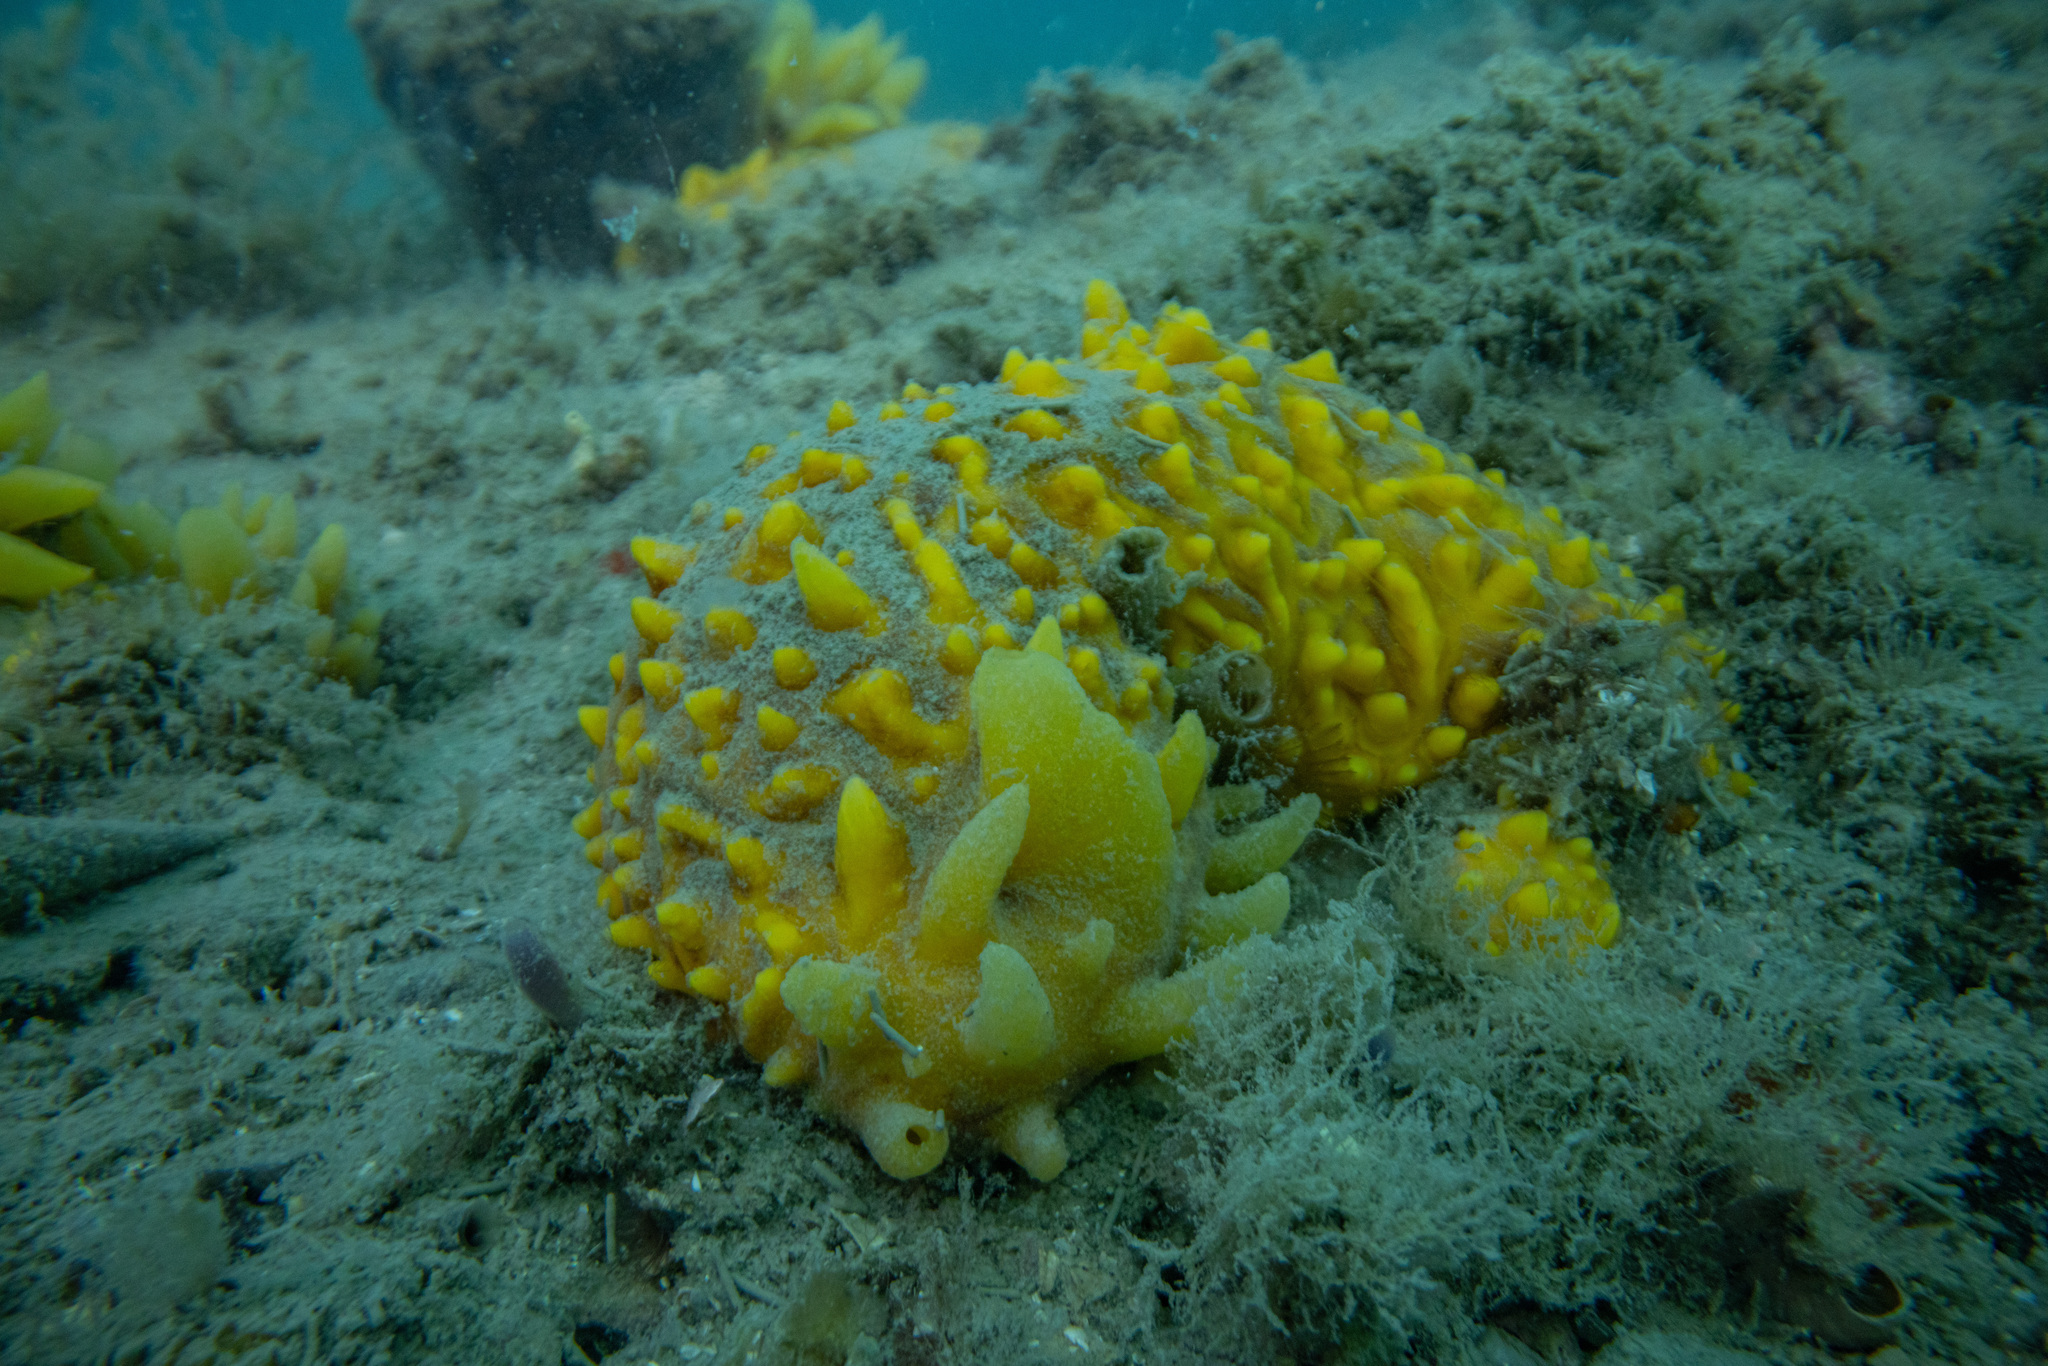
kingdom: Animalia
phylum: Porifera
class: Demospongiae
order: Polymastiida
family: Polymastiidae
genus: Polymastia
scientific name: Polymastia crocea
